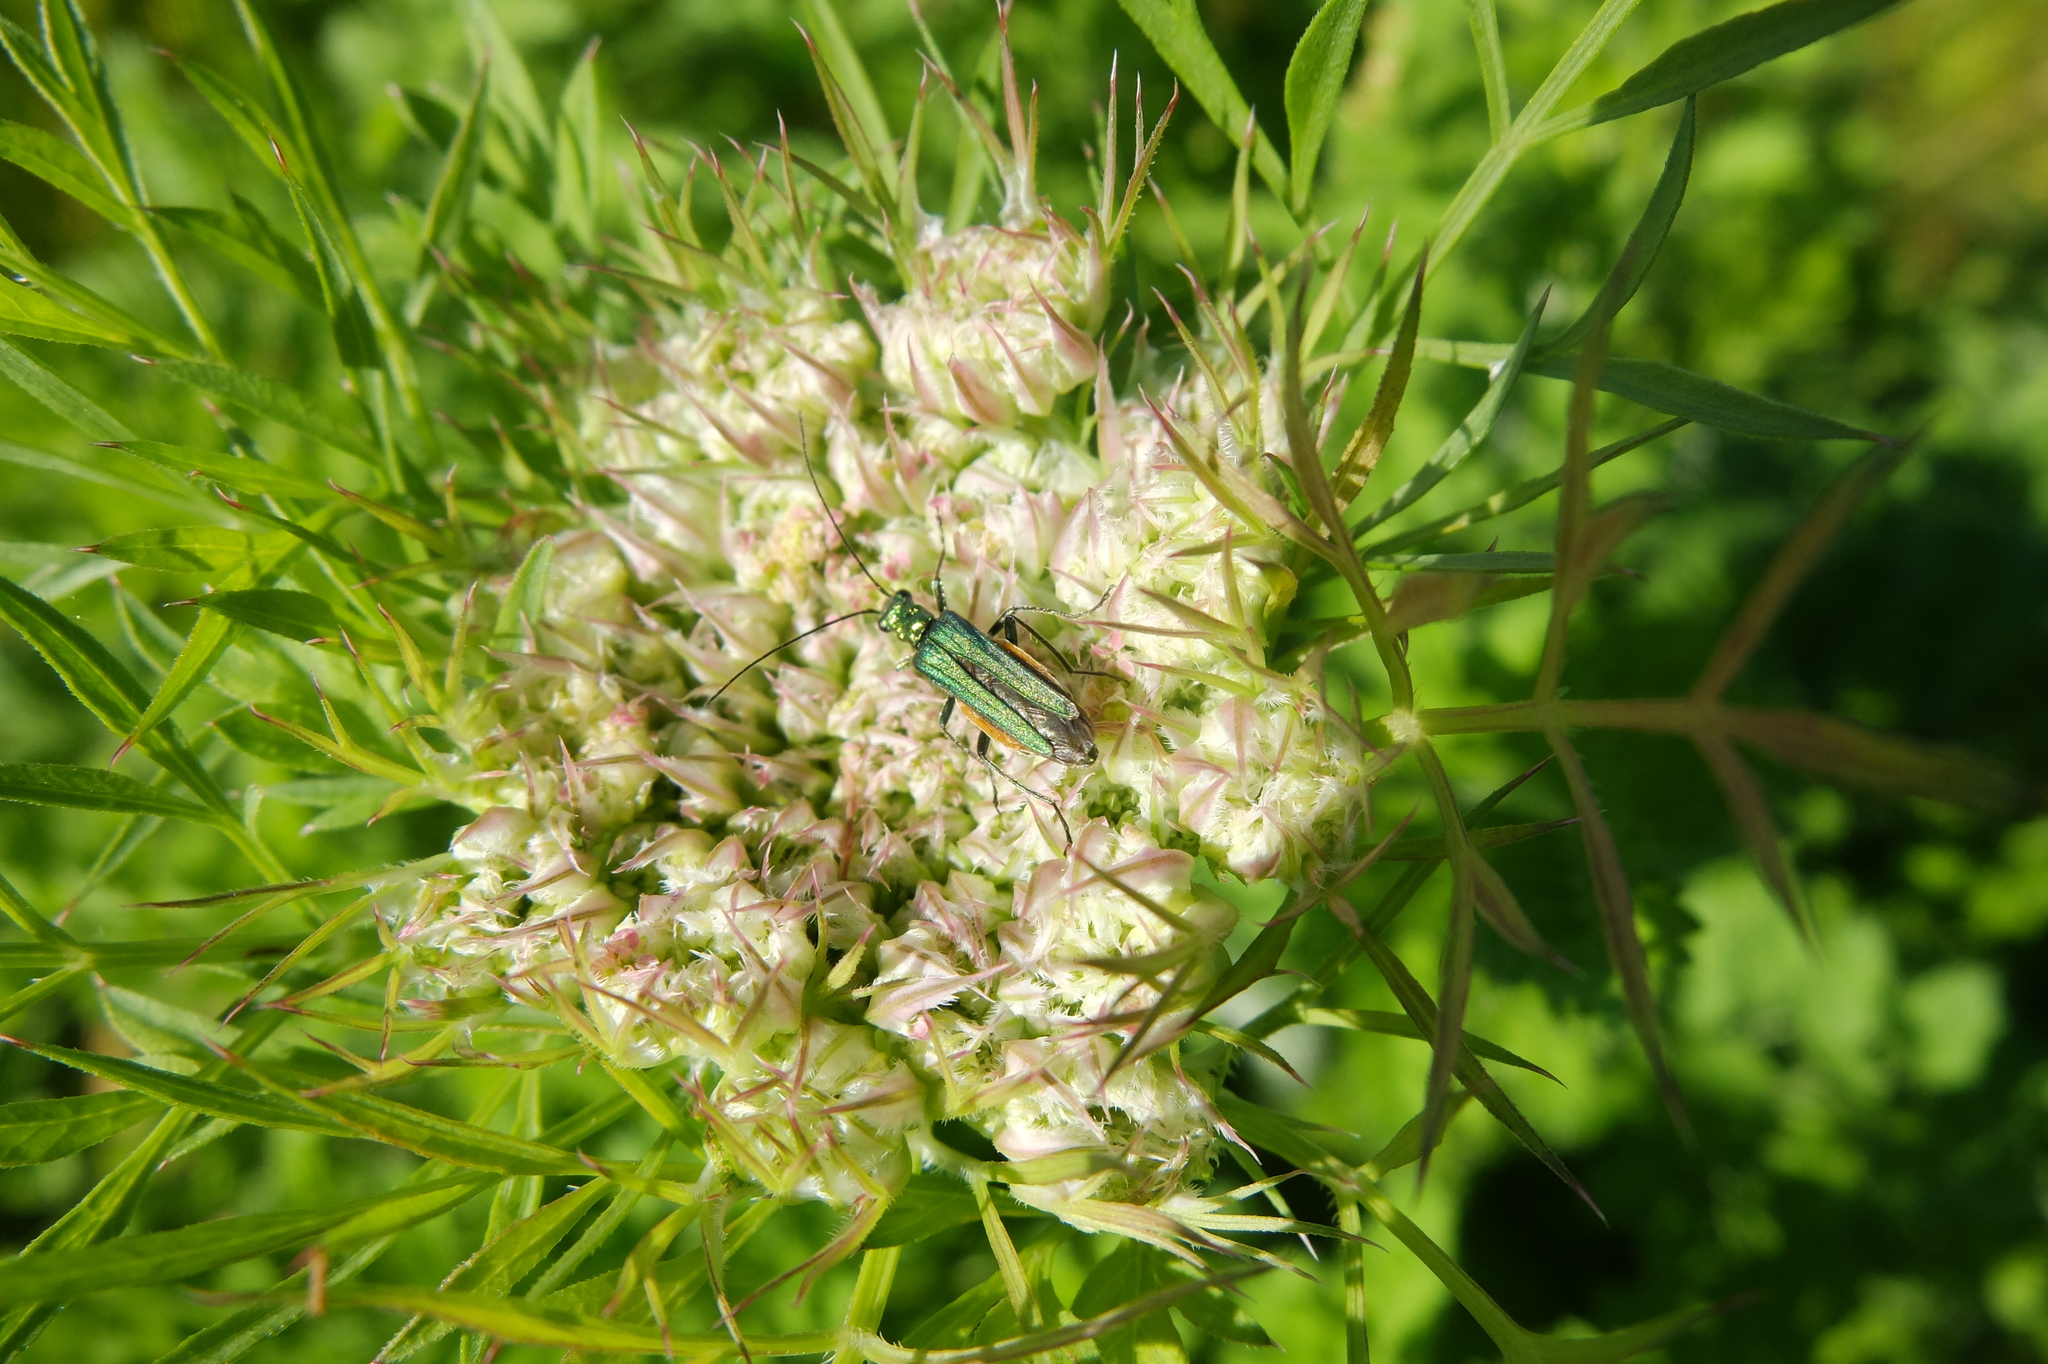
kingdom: Animalia
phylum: Arthropoda
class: Insecta
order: Coleoptera
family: Oedemeridae
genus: Oedemera
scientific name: Oedemera nobilis
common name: Swollen-thighed beetle
